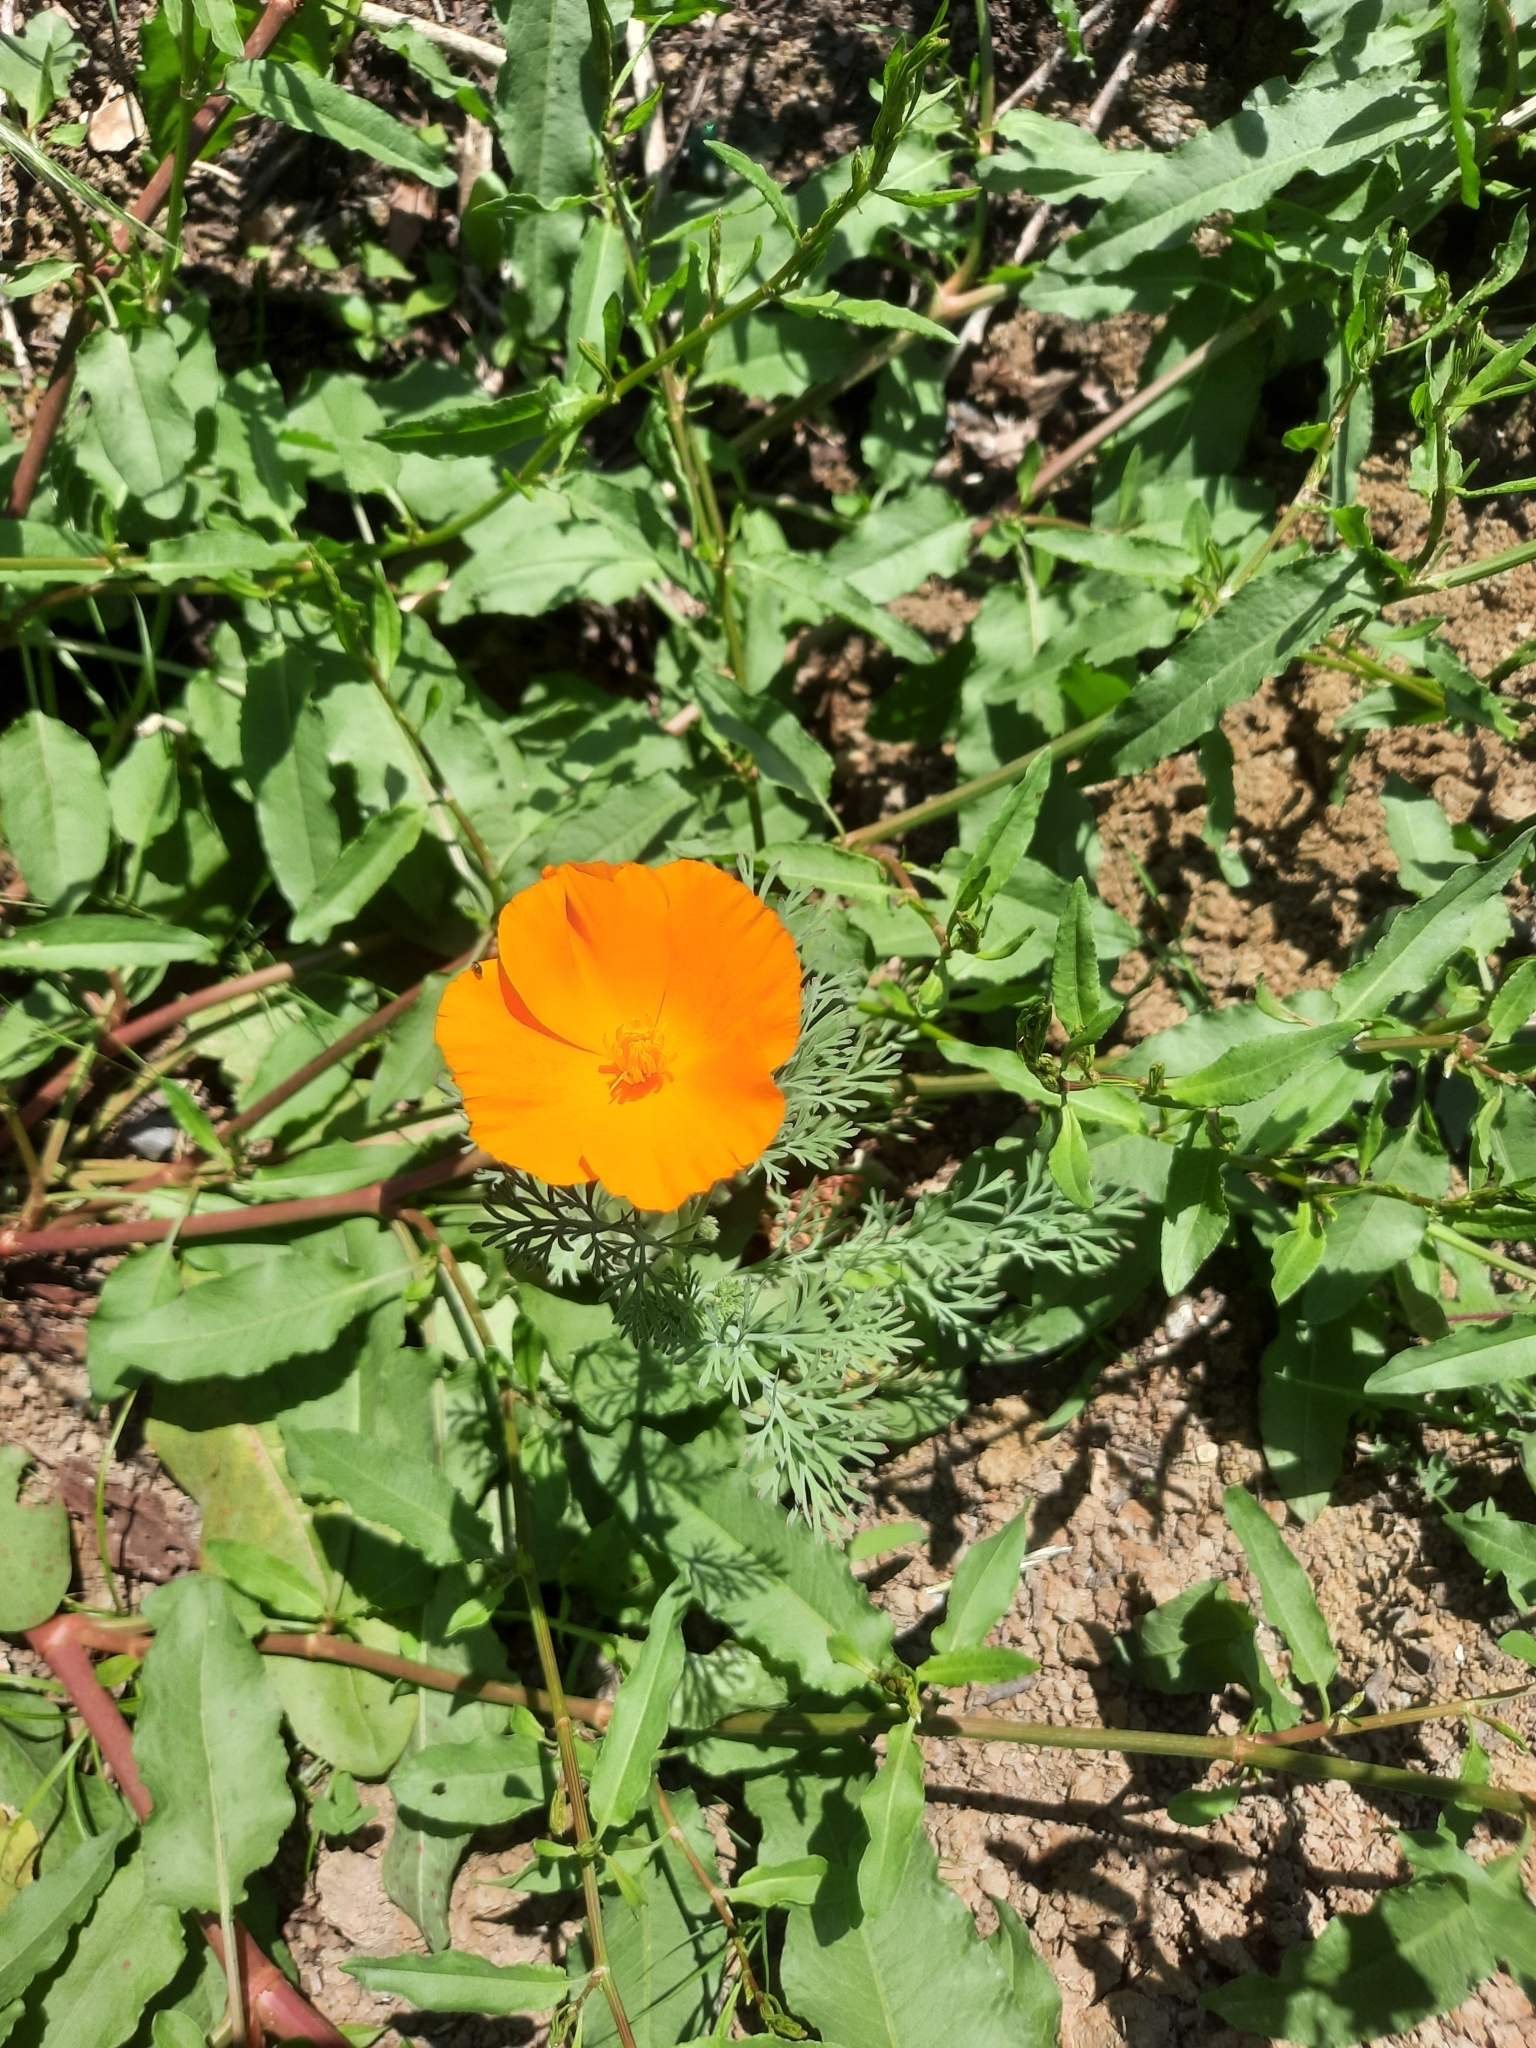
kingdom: Plantae
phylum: Tracheophyta
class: Magnoliopsida
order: Ranunculales
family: Papaveraceae
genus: Eschscholzia
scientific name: Eschscholzia californica
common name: California poppy
